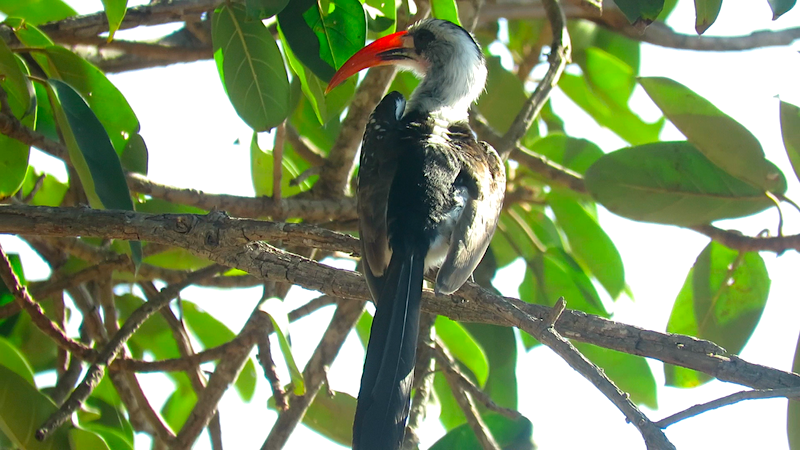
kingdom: Animalia
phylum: Chordata
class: Aves
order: Bucerotiformes
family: Bucerotidae
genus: Tockus
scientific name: Tockus kempi
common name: Western red-billed hornbill
